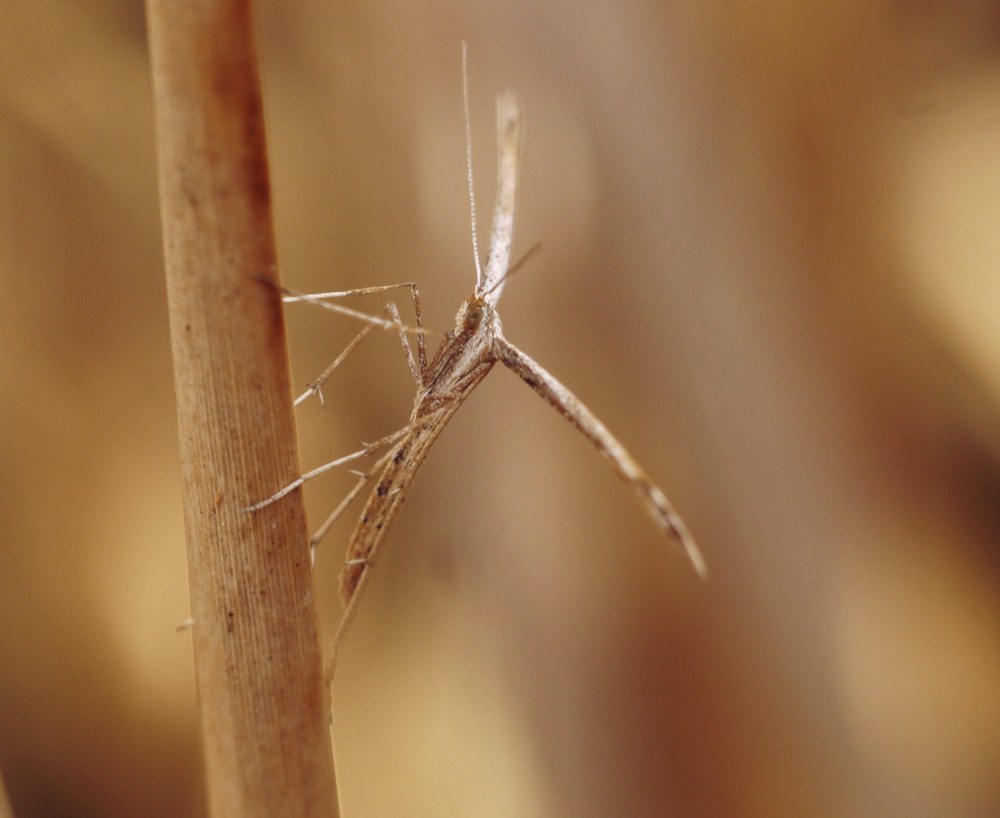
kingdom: Animalia
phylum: Arthropoda
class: Insecta
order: Lepidoptera
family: Pterophoridae
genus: Emmelina
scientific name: Emmelina monodactyla
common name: Common plume
